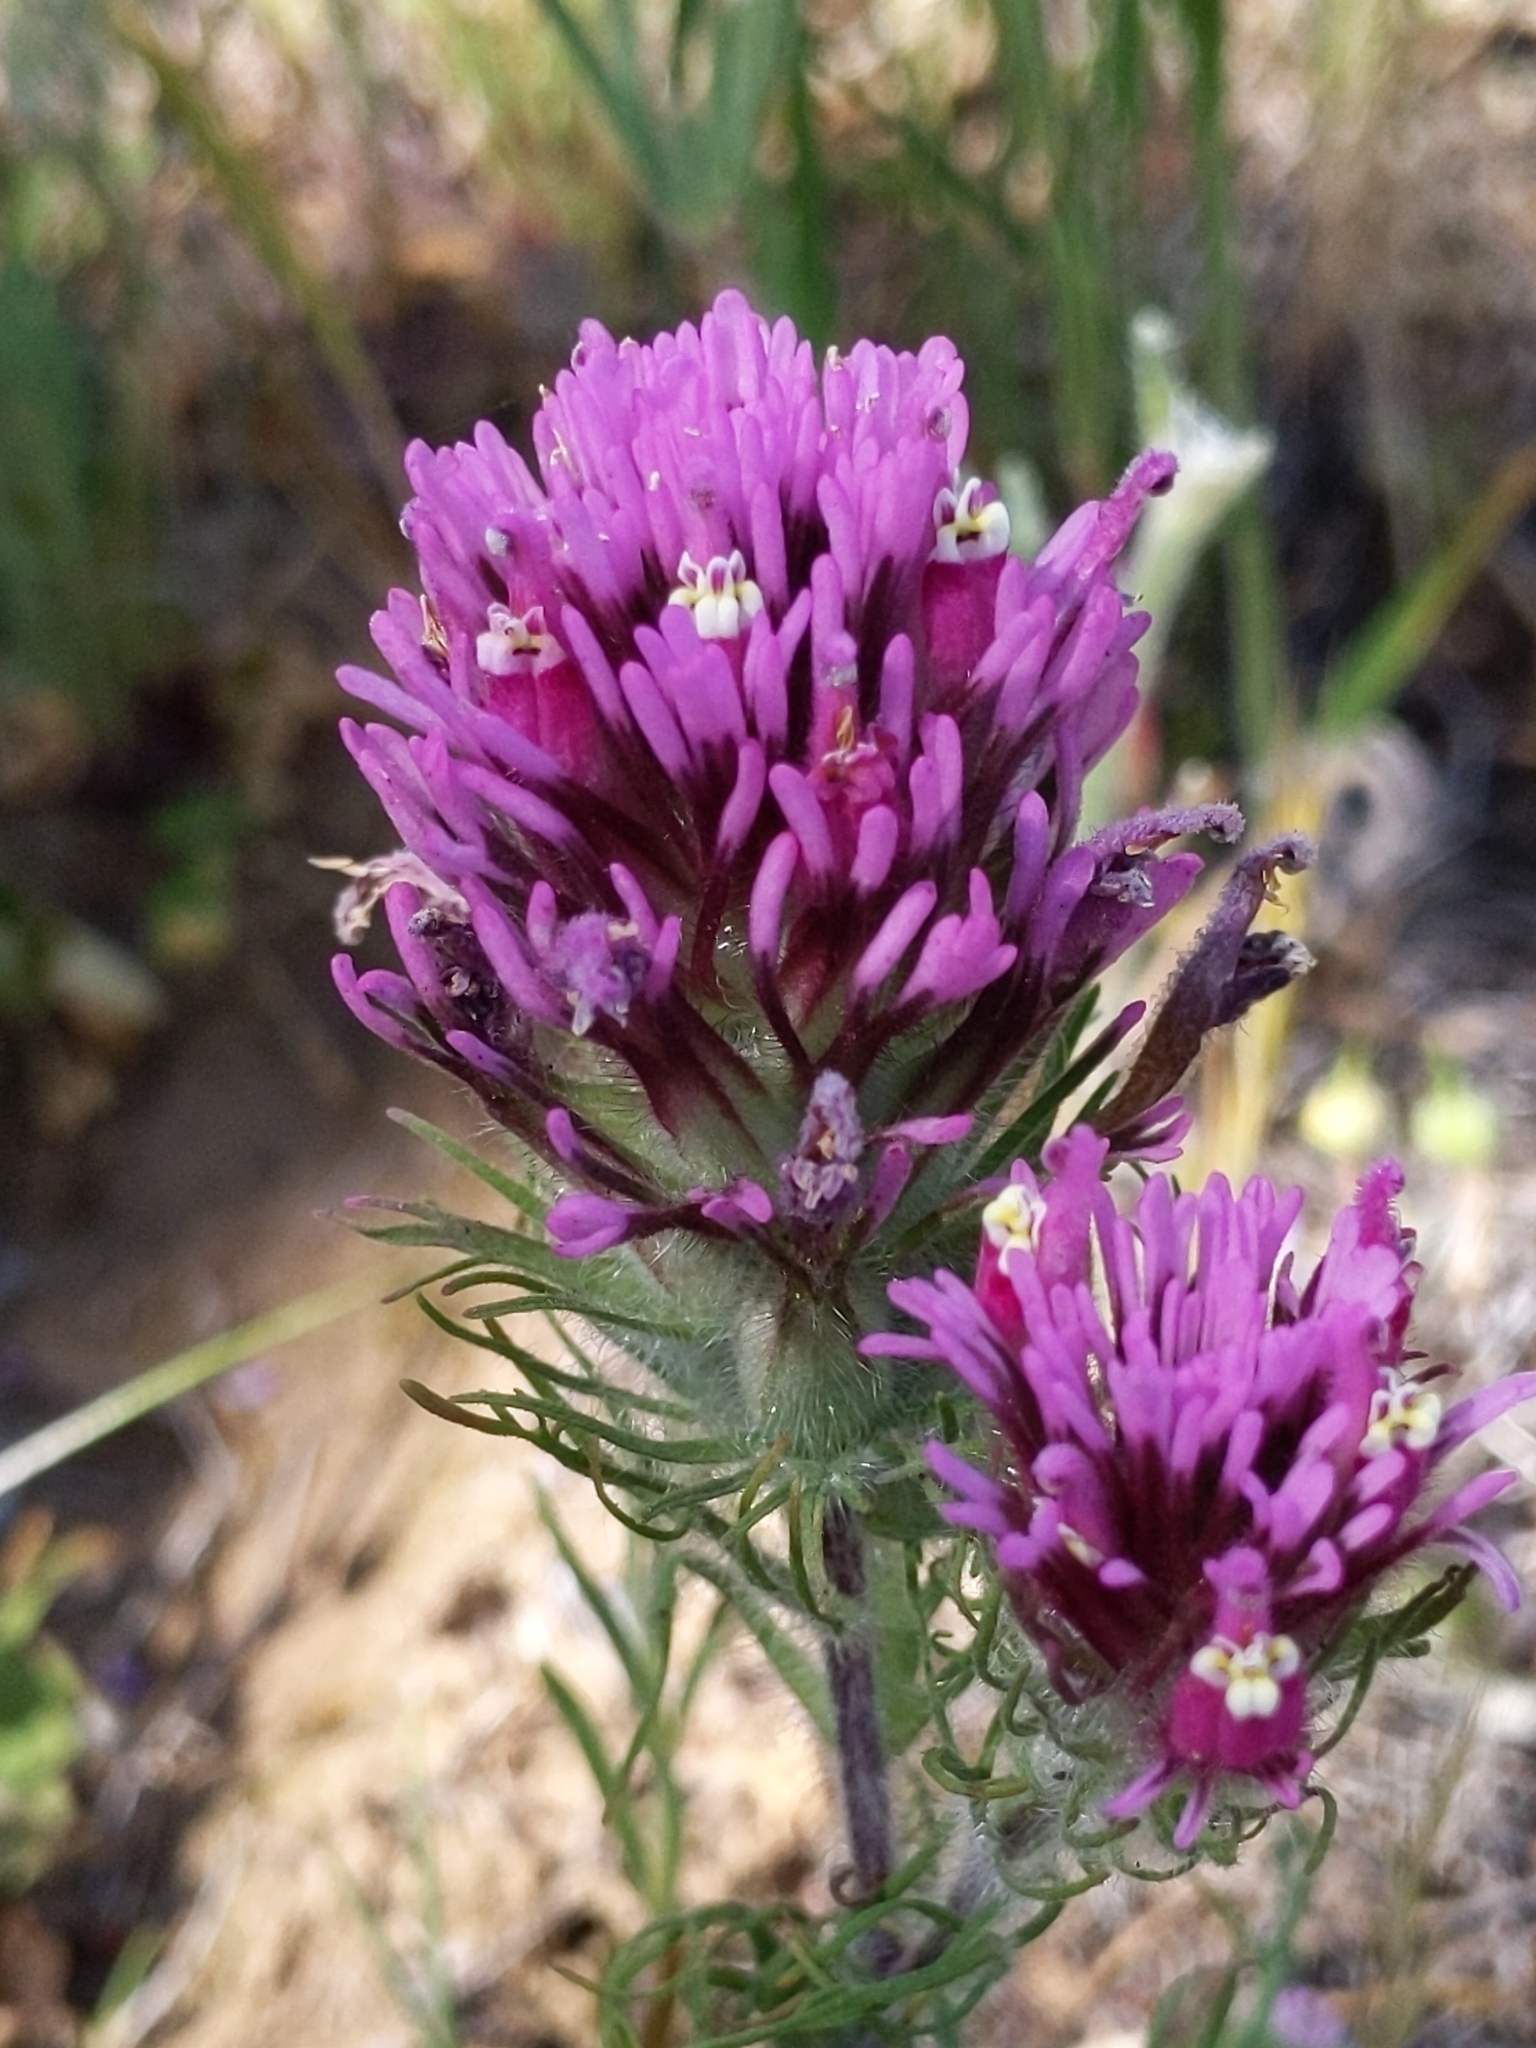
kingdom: Plantae
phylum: Tracheophyta
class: Magnoliopsida
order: Lamiales
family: Orobanchaceae
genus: Castilleja
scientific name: Castilleja exserta
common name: Purple owl-clover
